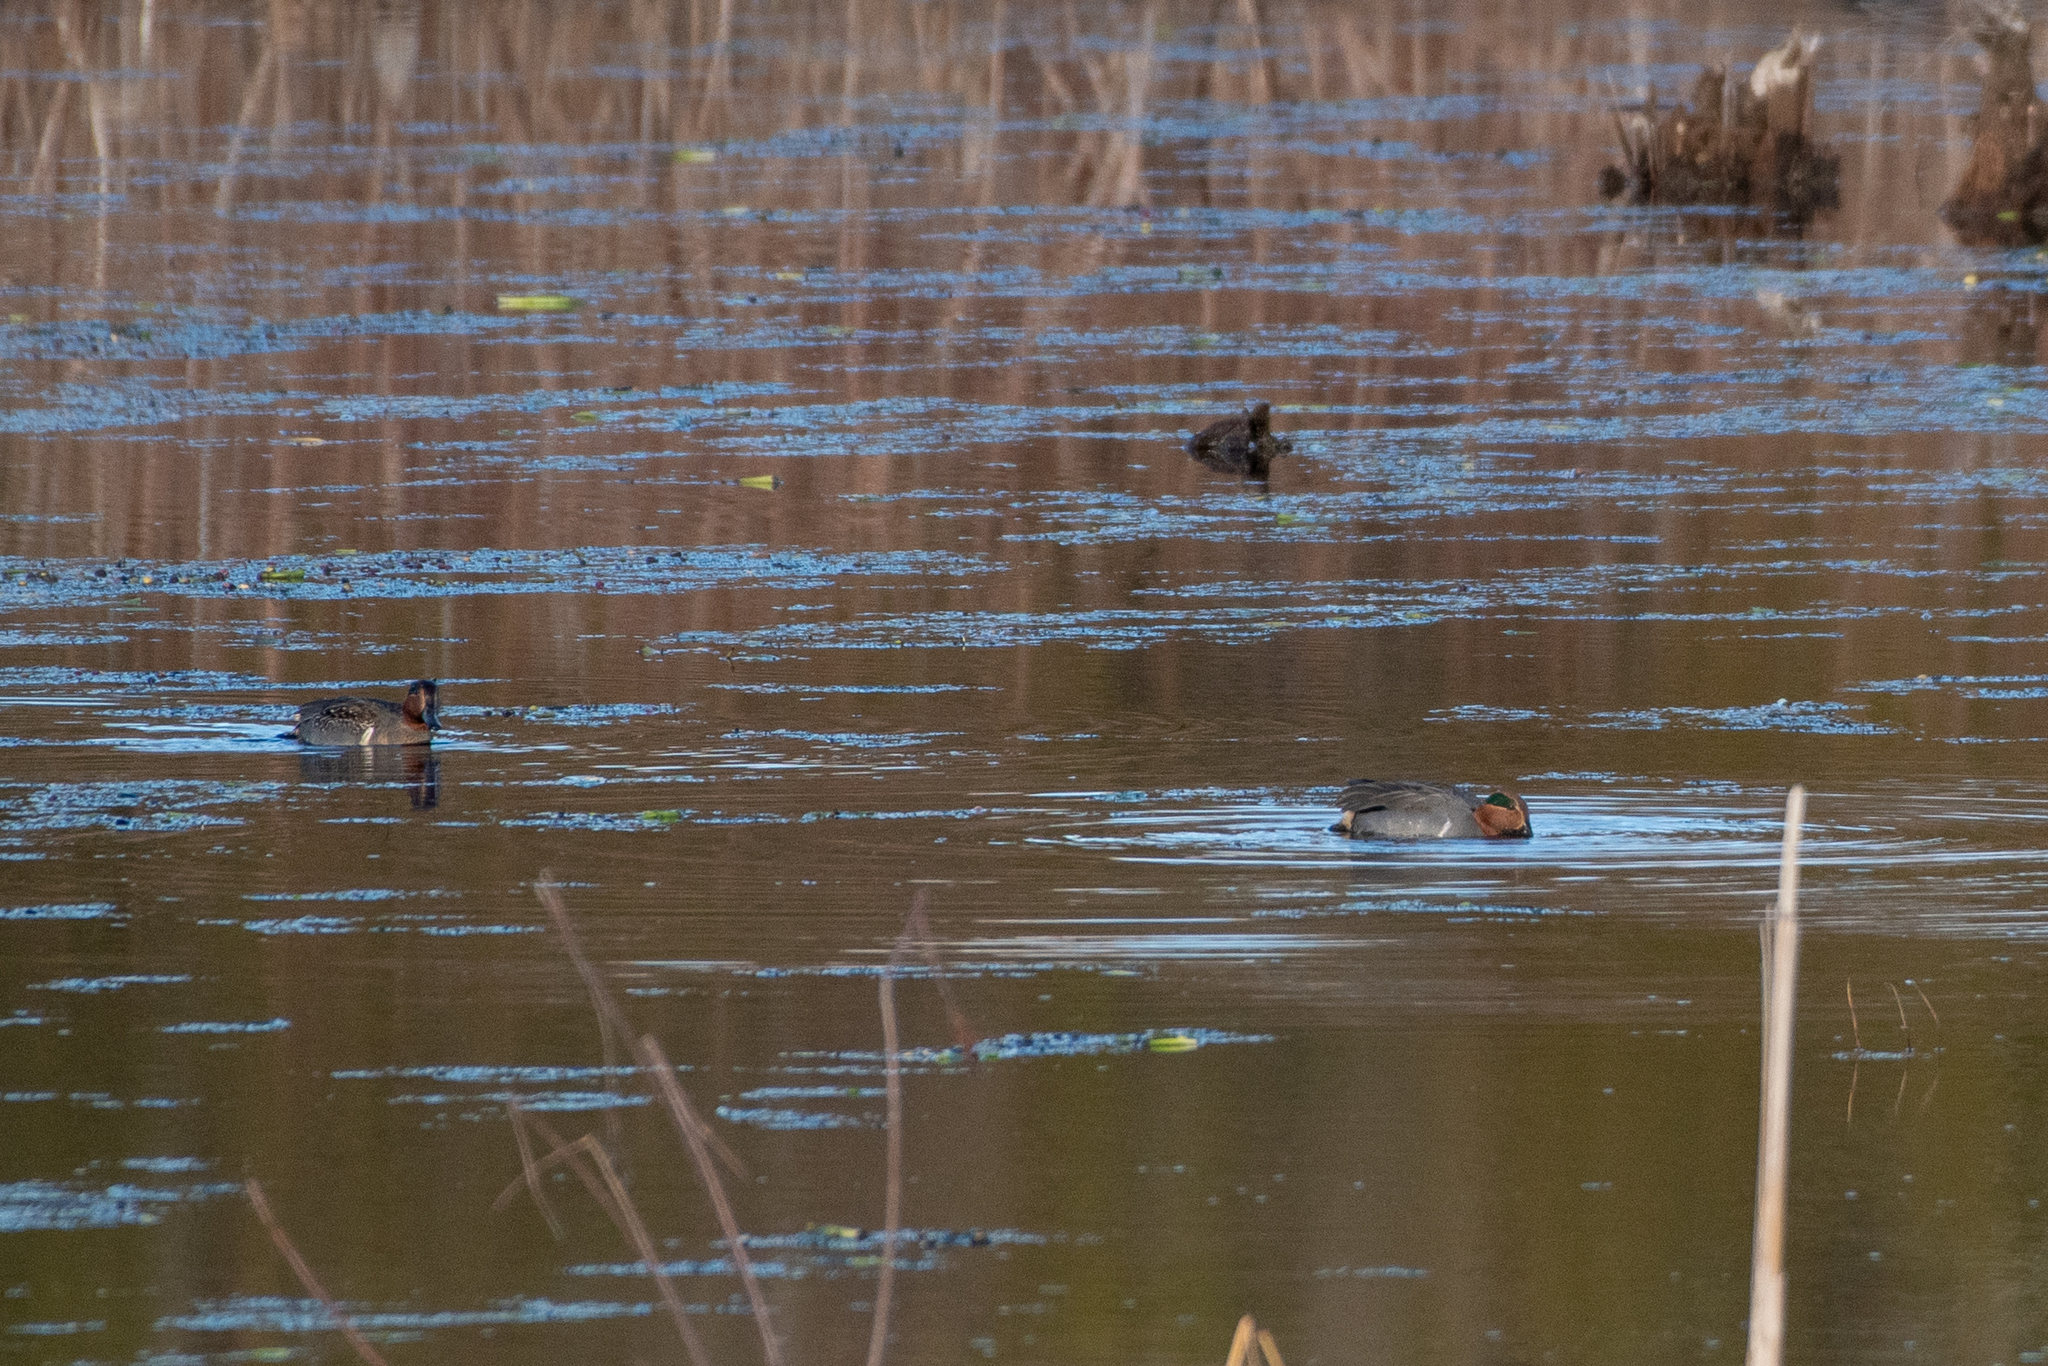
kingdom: Animalia
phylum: Chordata
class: Aves
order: Anseriformes
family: Anatidae
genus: Anas
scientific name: Anas carolinensis
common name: Green-winged teal
